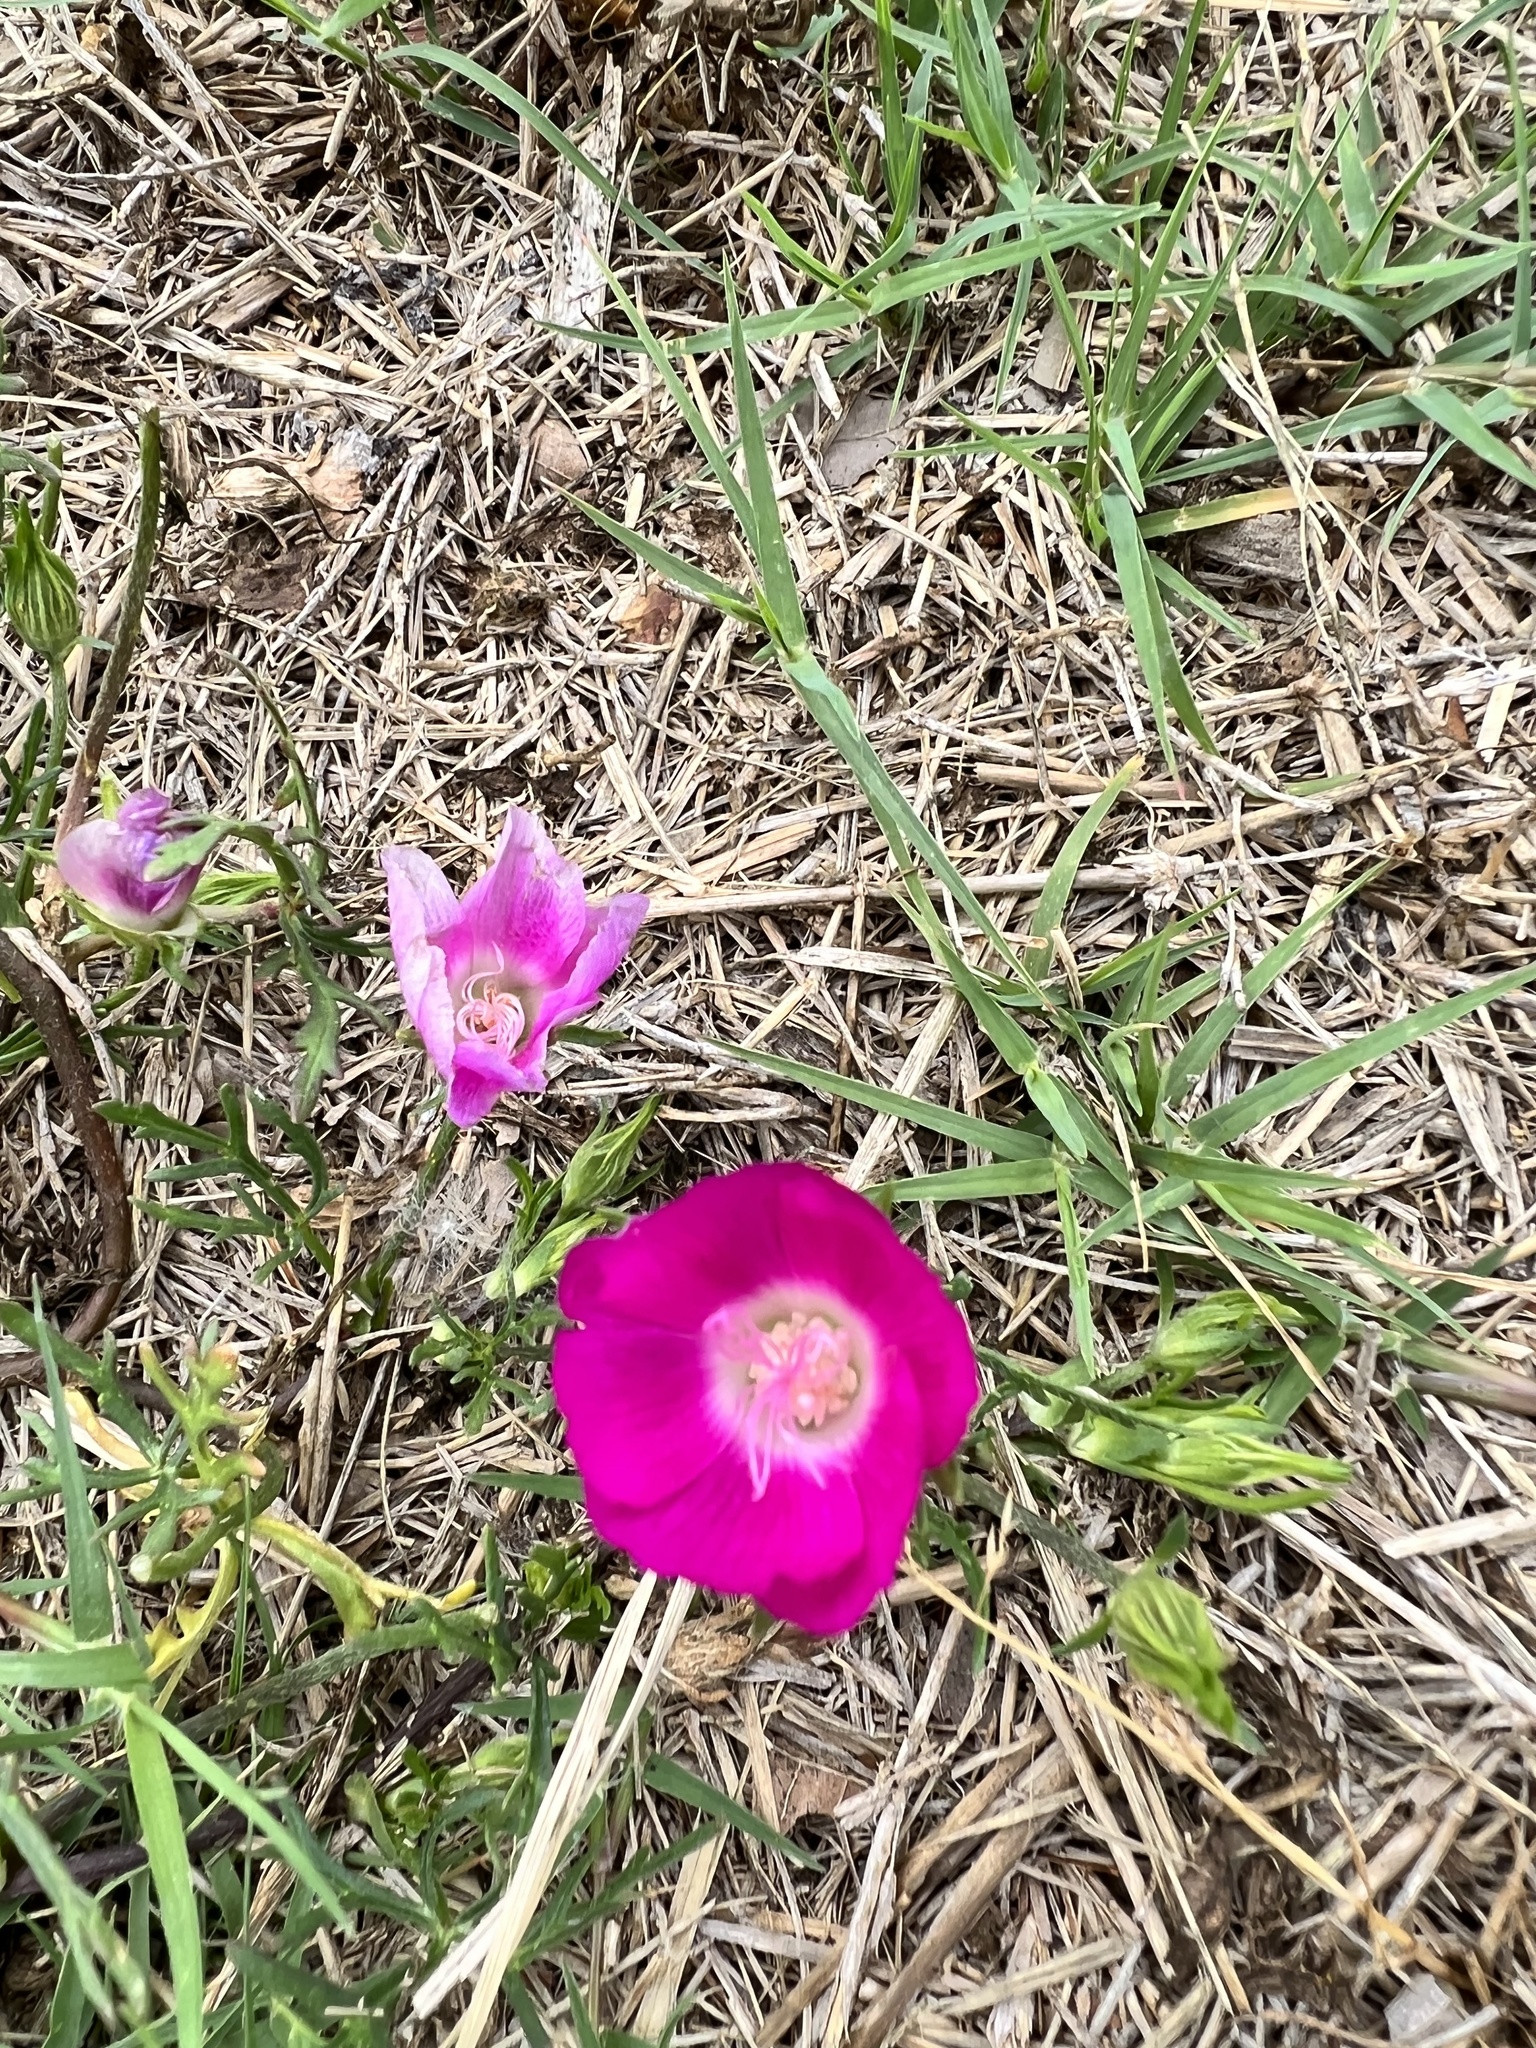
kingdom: Plantae
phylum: Tracheophyta
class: Magnoliopsida
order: Malvales
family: Malvaceae
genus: Callirhoe
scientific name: Callirhoe involucrata
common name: Purple poppy-mallow
